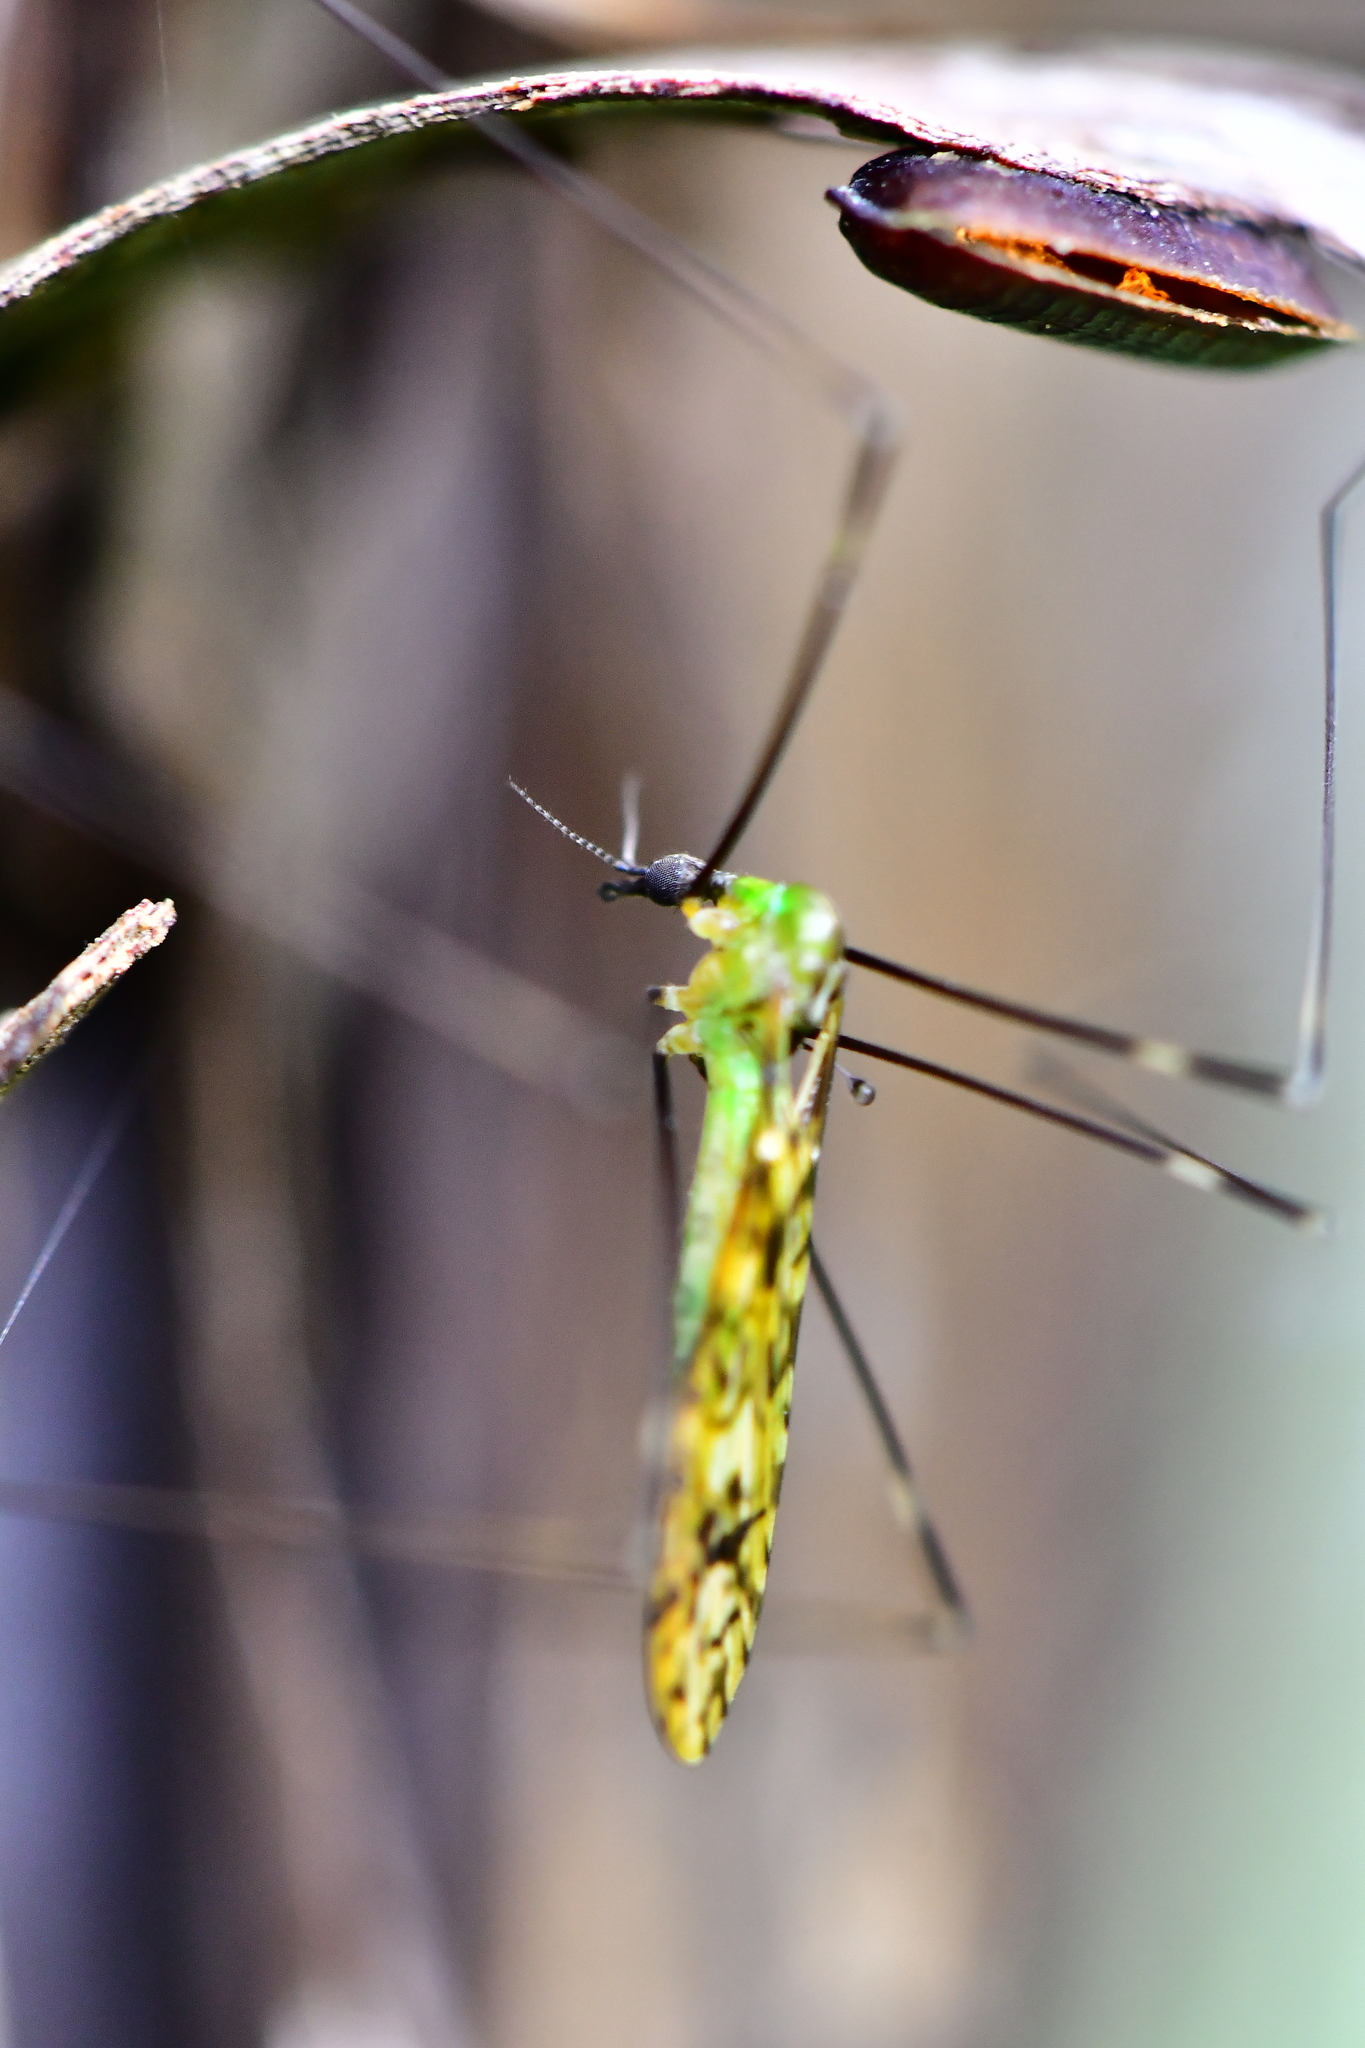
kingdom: Animalia
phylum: Arthropoda
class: Insecta
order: Diptera
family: Limoniidae
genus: Discobola
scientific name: Discobola tessellata
